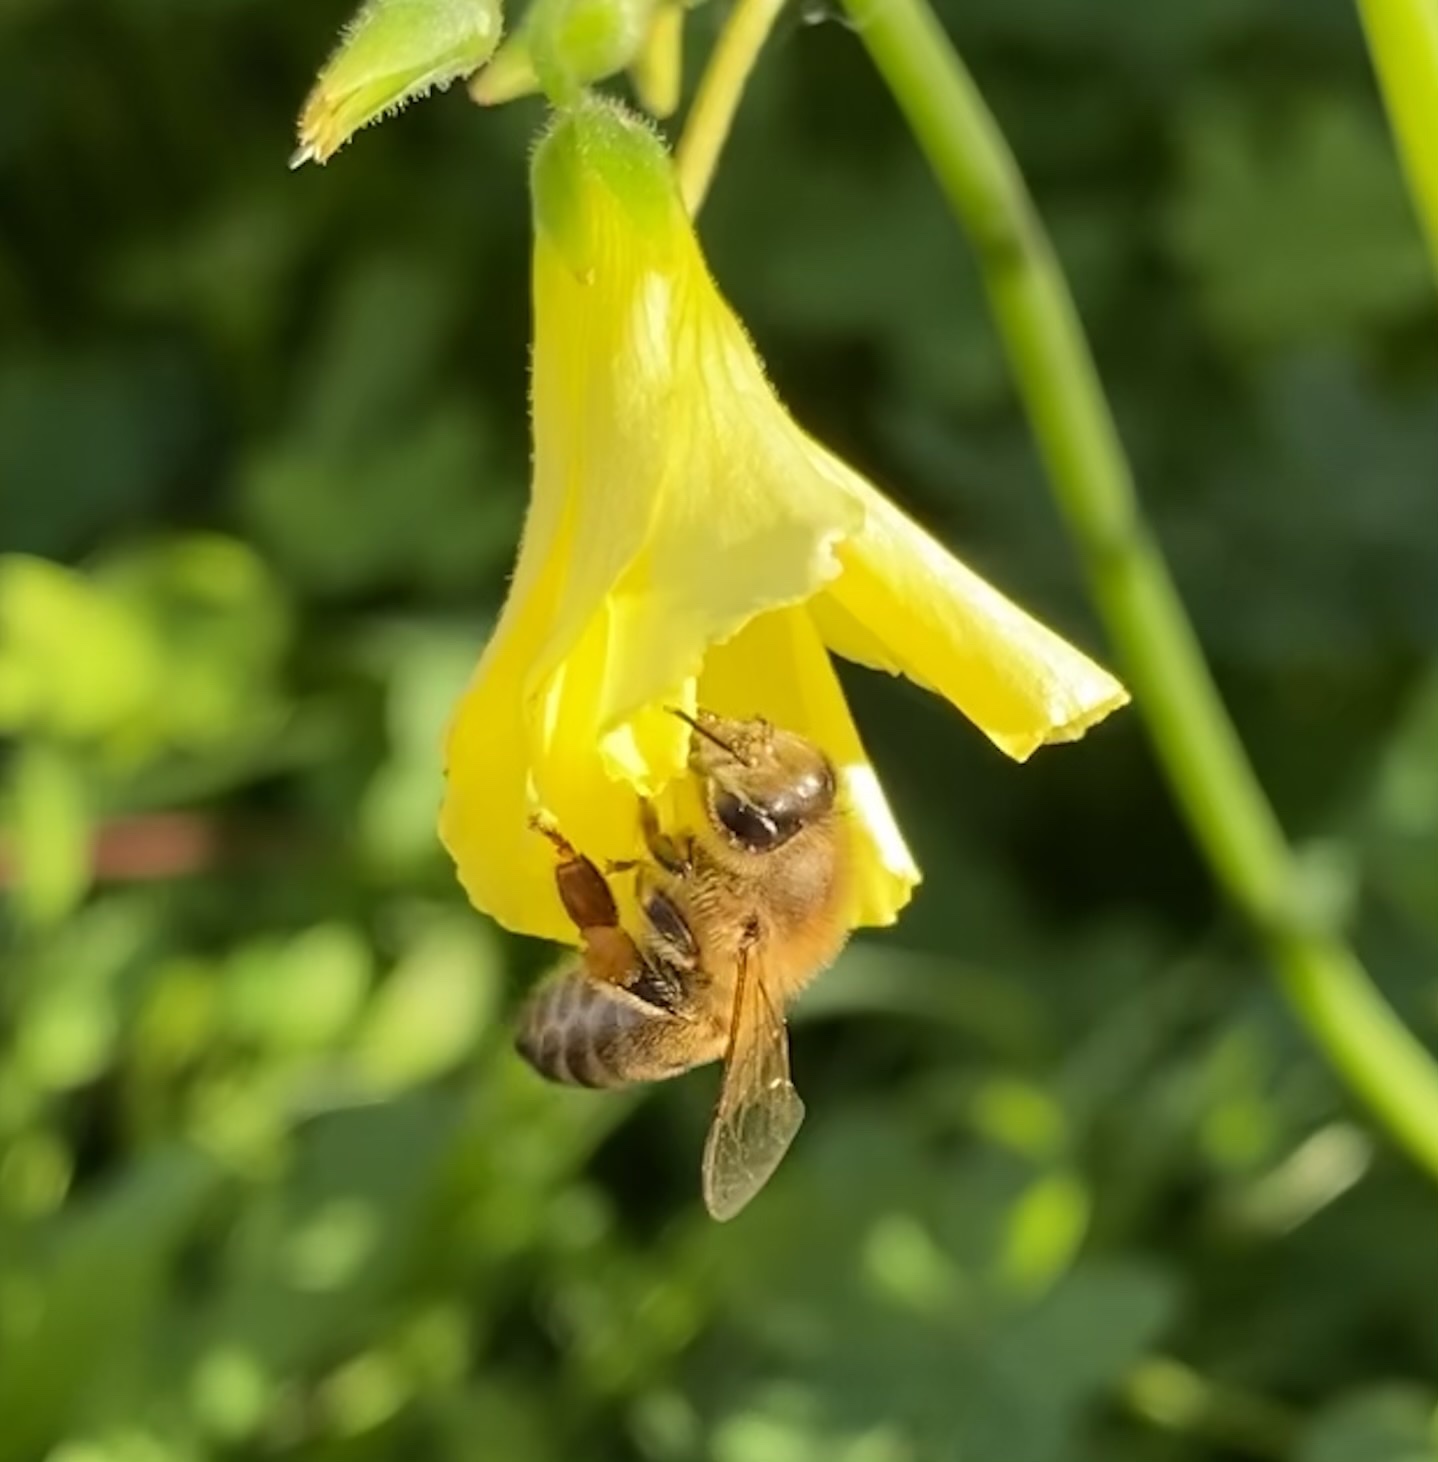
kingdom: Animalia
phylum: Arthropoda
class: Insecta
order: Hymenoptera
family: Apidae
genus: Apis
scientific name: Apis mellifera
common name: Honey bee
